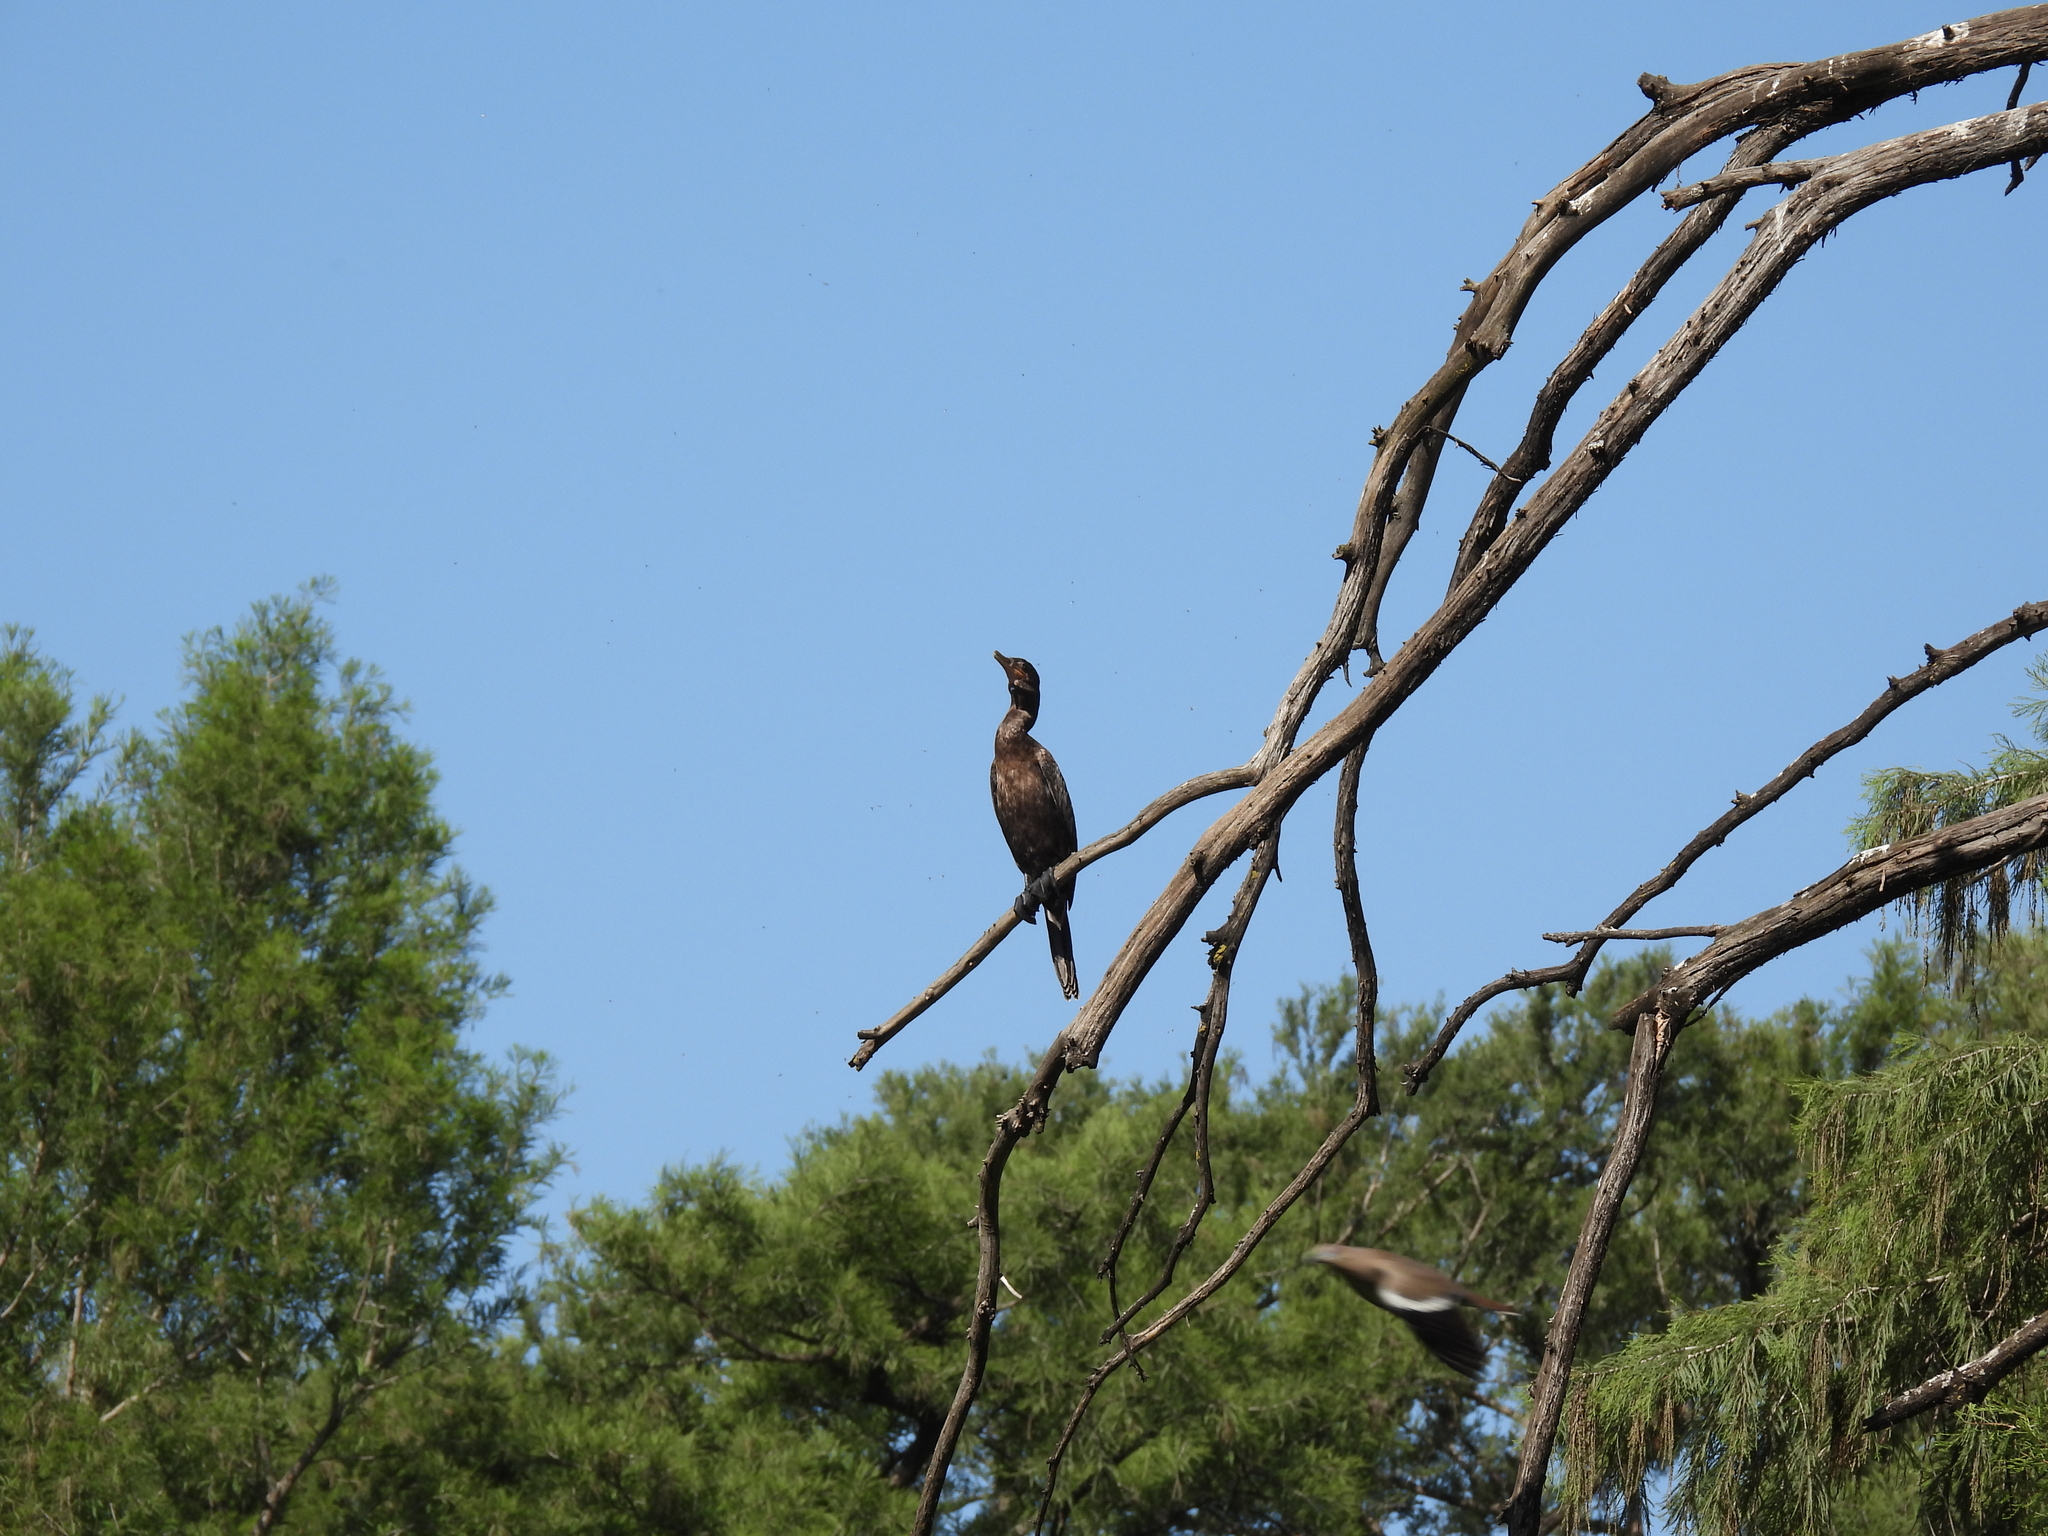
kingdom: Animalia
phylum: Chordata
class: Aves
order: Suliformes
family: Phalacrocoracidae
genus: Phalacrocorax
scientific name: Phalacrocorax brasilianus
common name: Neotropic cormorant
